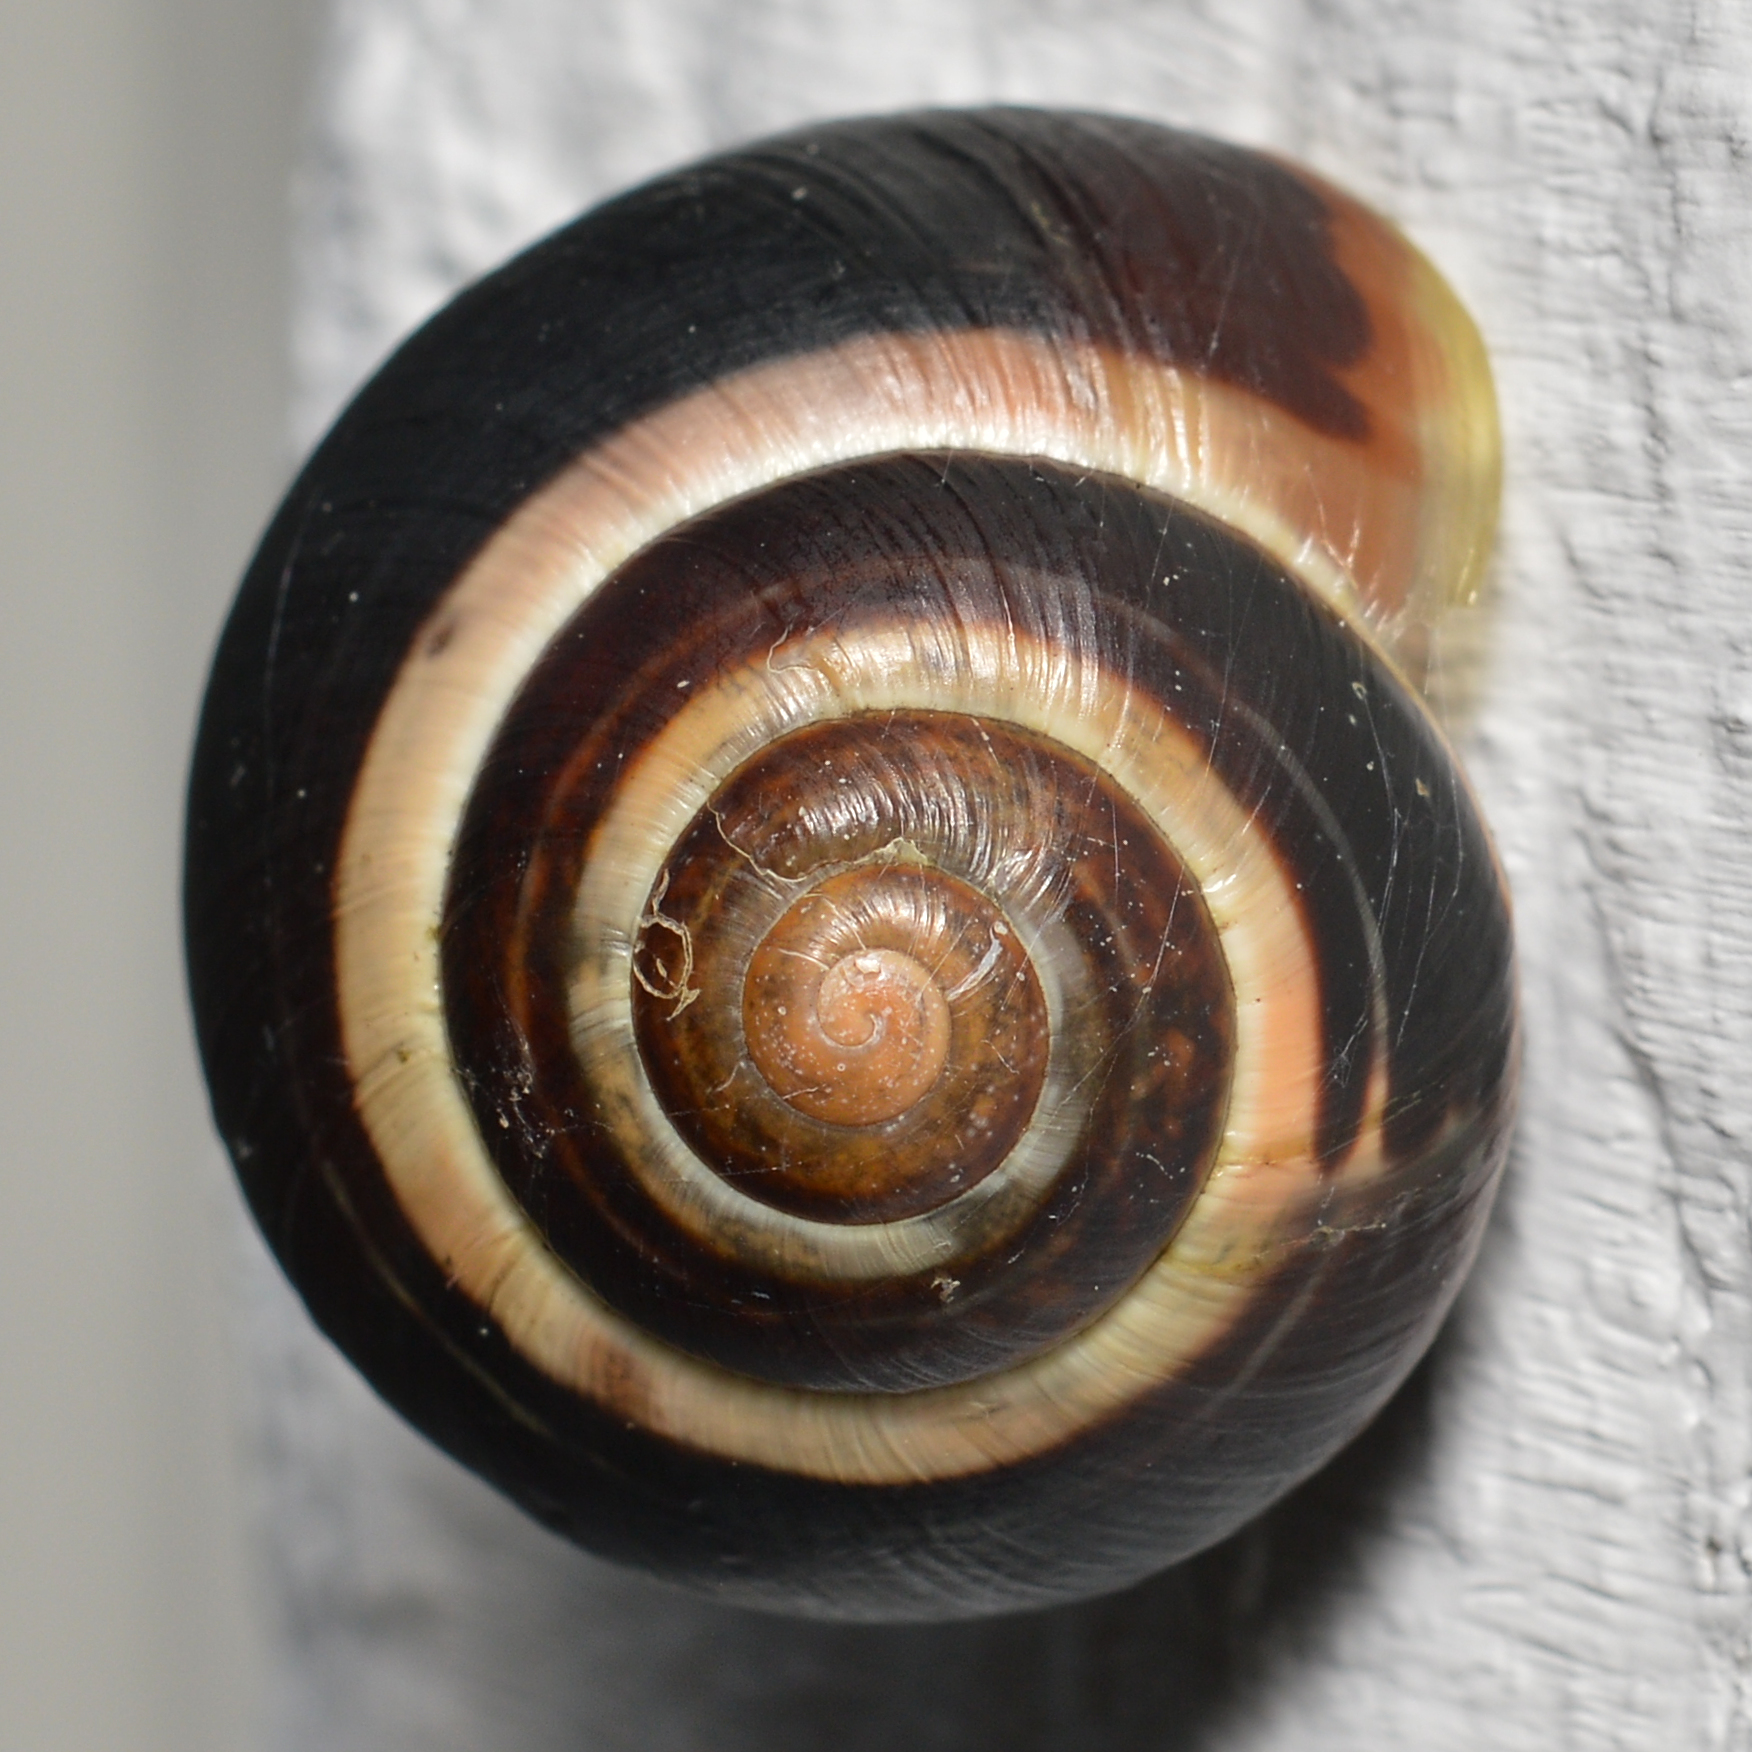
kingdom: Animalia
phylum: Mollusca
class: Gastropoda
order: Stylommatophora
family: Helicidae
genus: Cepaea
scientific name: Cepaea
